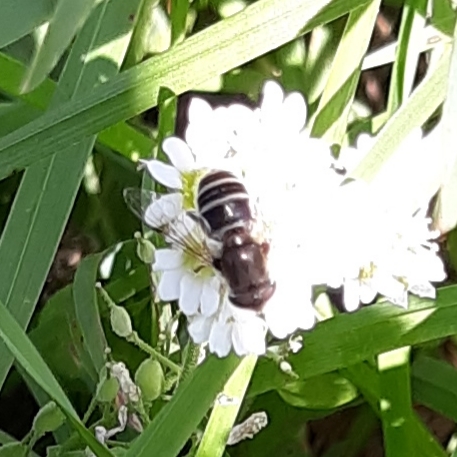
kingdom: Animalia
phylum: Arthropoda
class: Insecta
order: Diptera
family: Syrphidae
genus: Eristalis
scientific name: Eristalis arbustorum
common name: Hover fly
